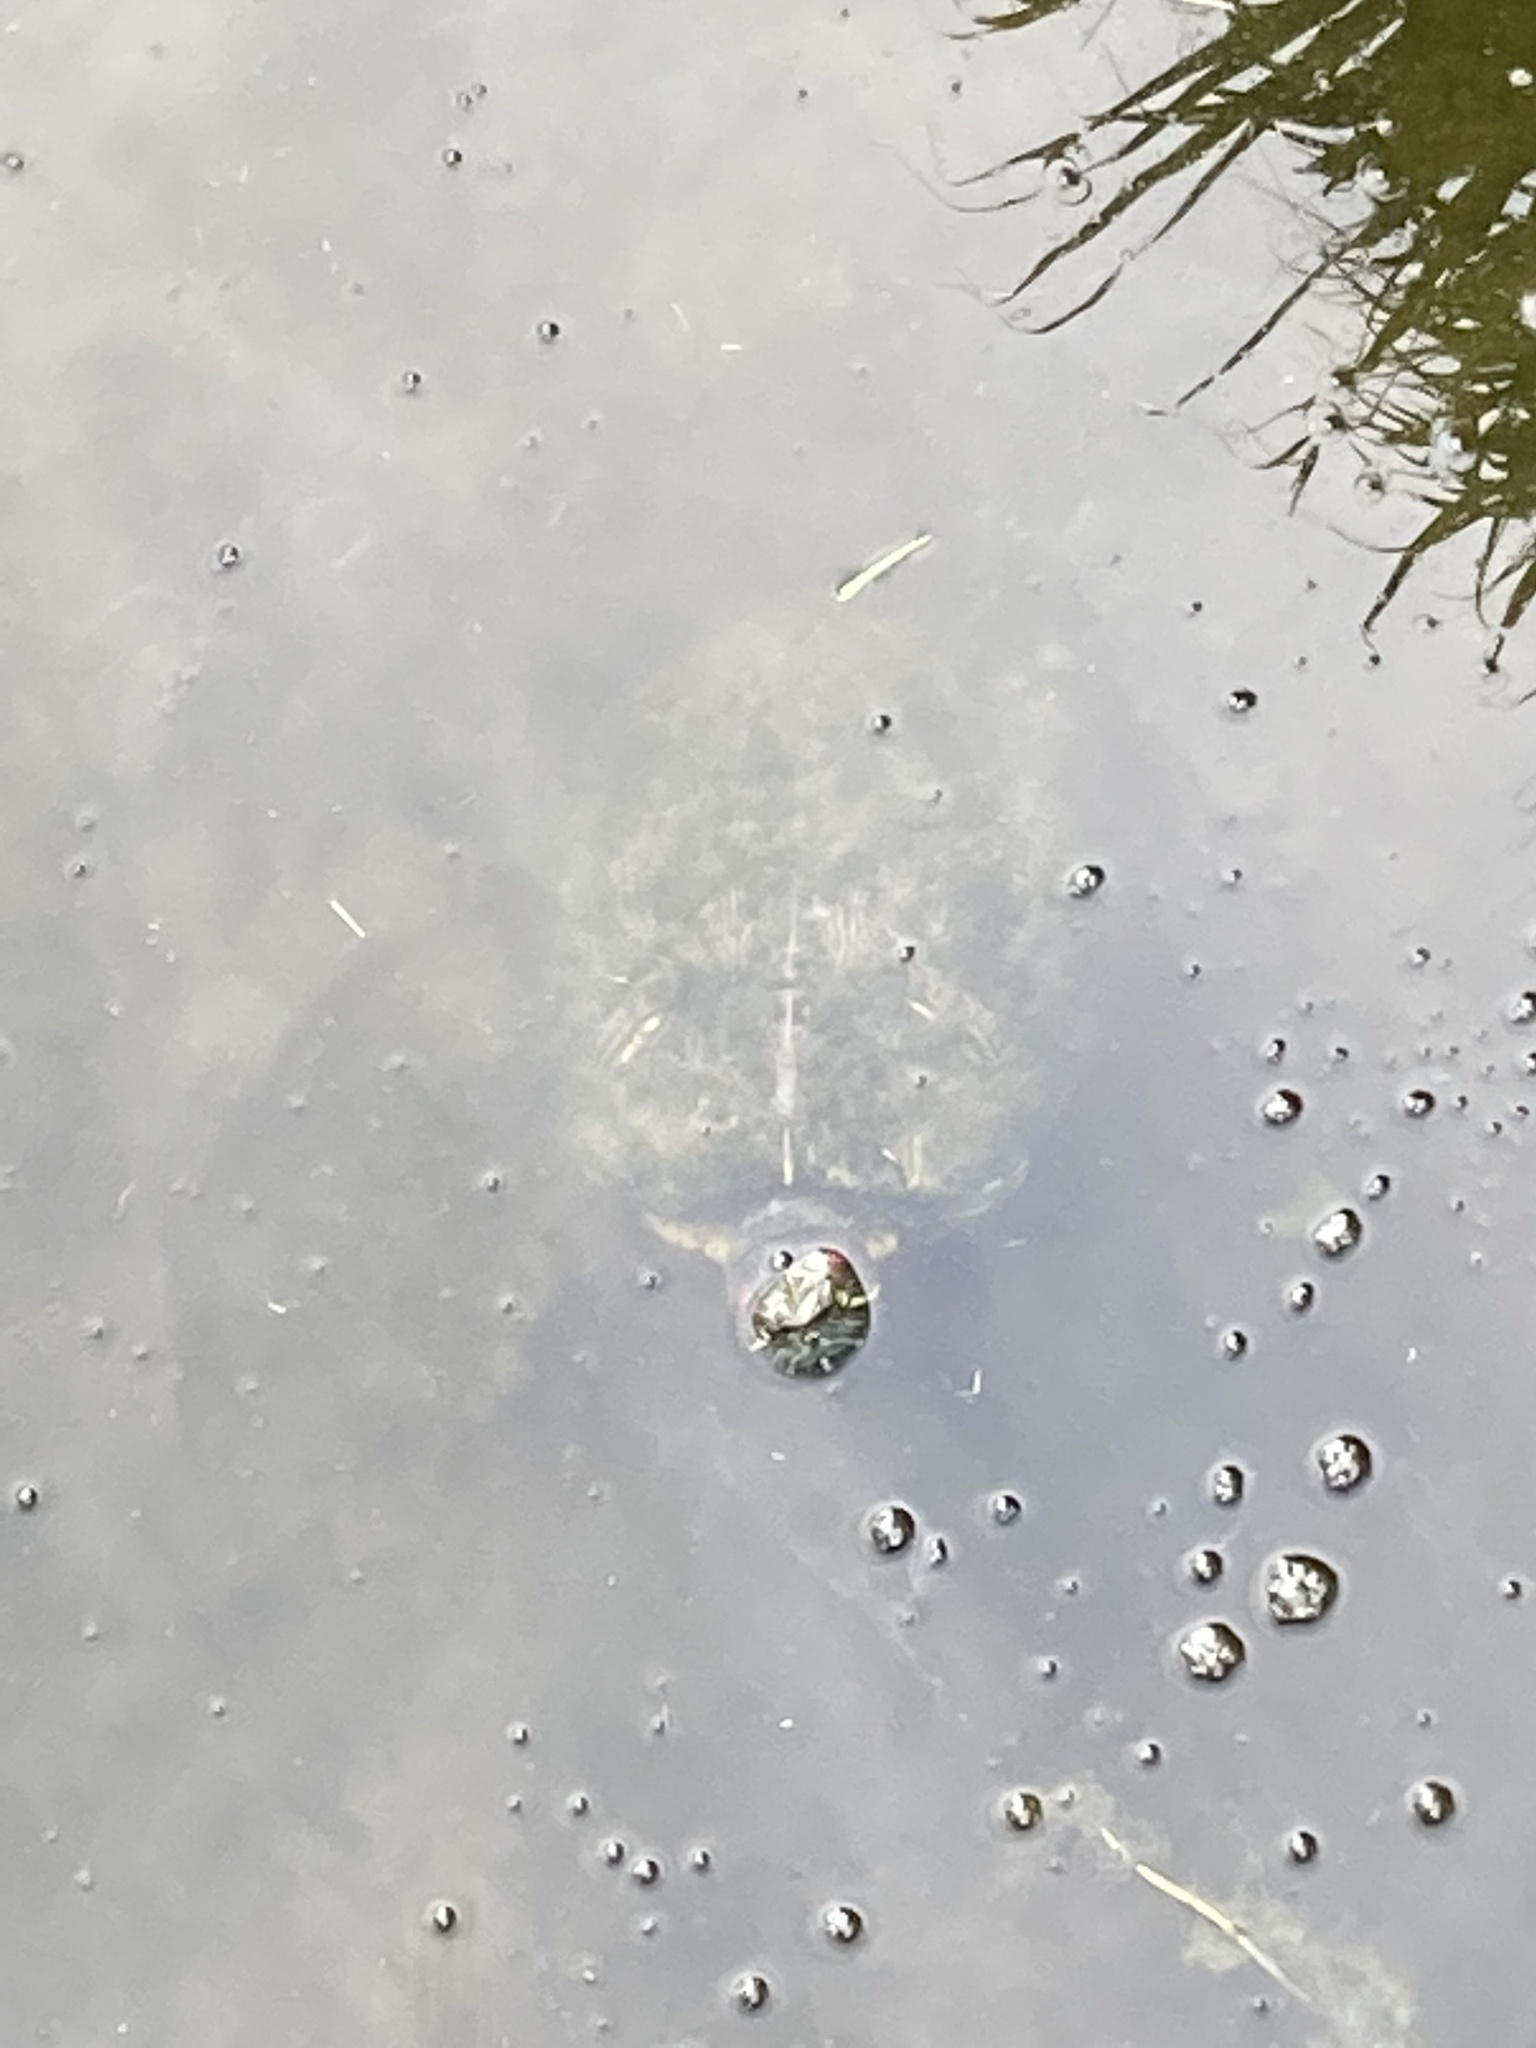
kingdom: Animalia
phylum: Chordata
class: Testudines
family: Emydidae
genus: Trachemys
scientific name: Trachemys scripta
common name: Slider
